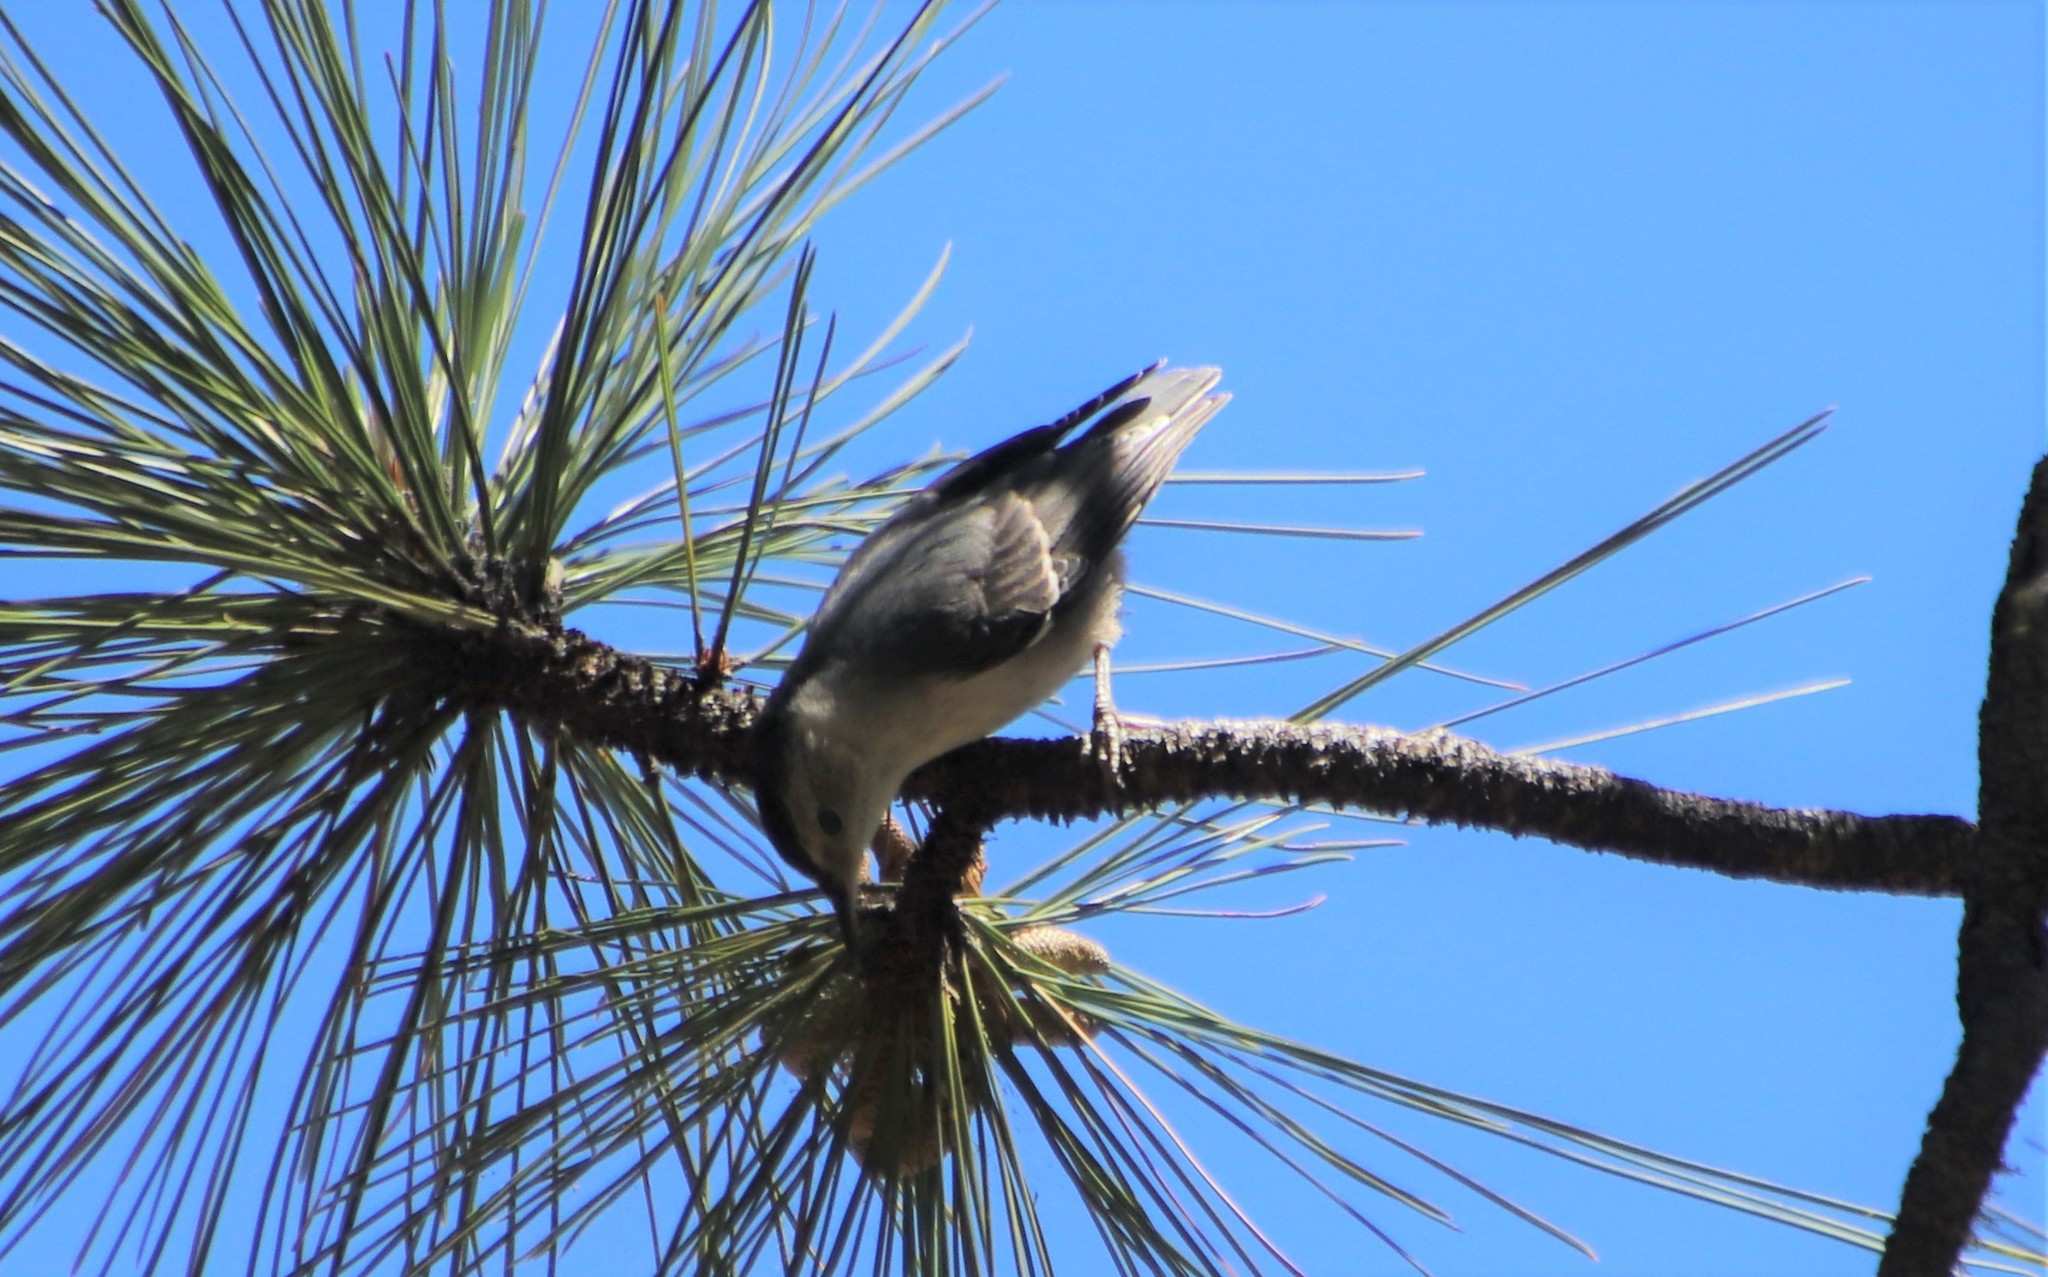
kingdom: Animalia
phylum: Chordata
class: Aves
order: Passeriformes
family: Sittidae
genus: Sitta
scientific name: Sitta pygmaea
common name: Pygmy nuthatch
